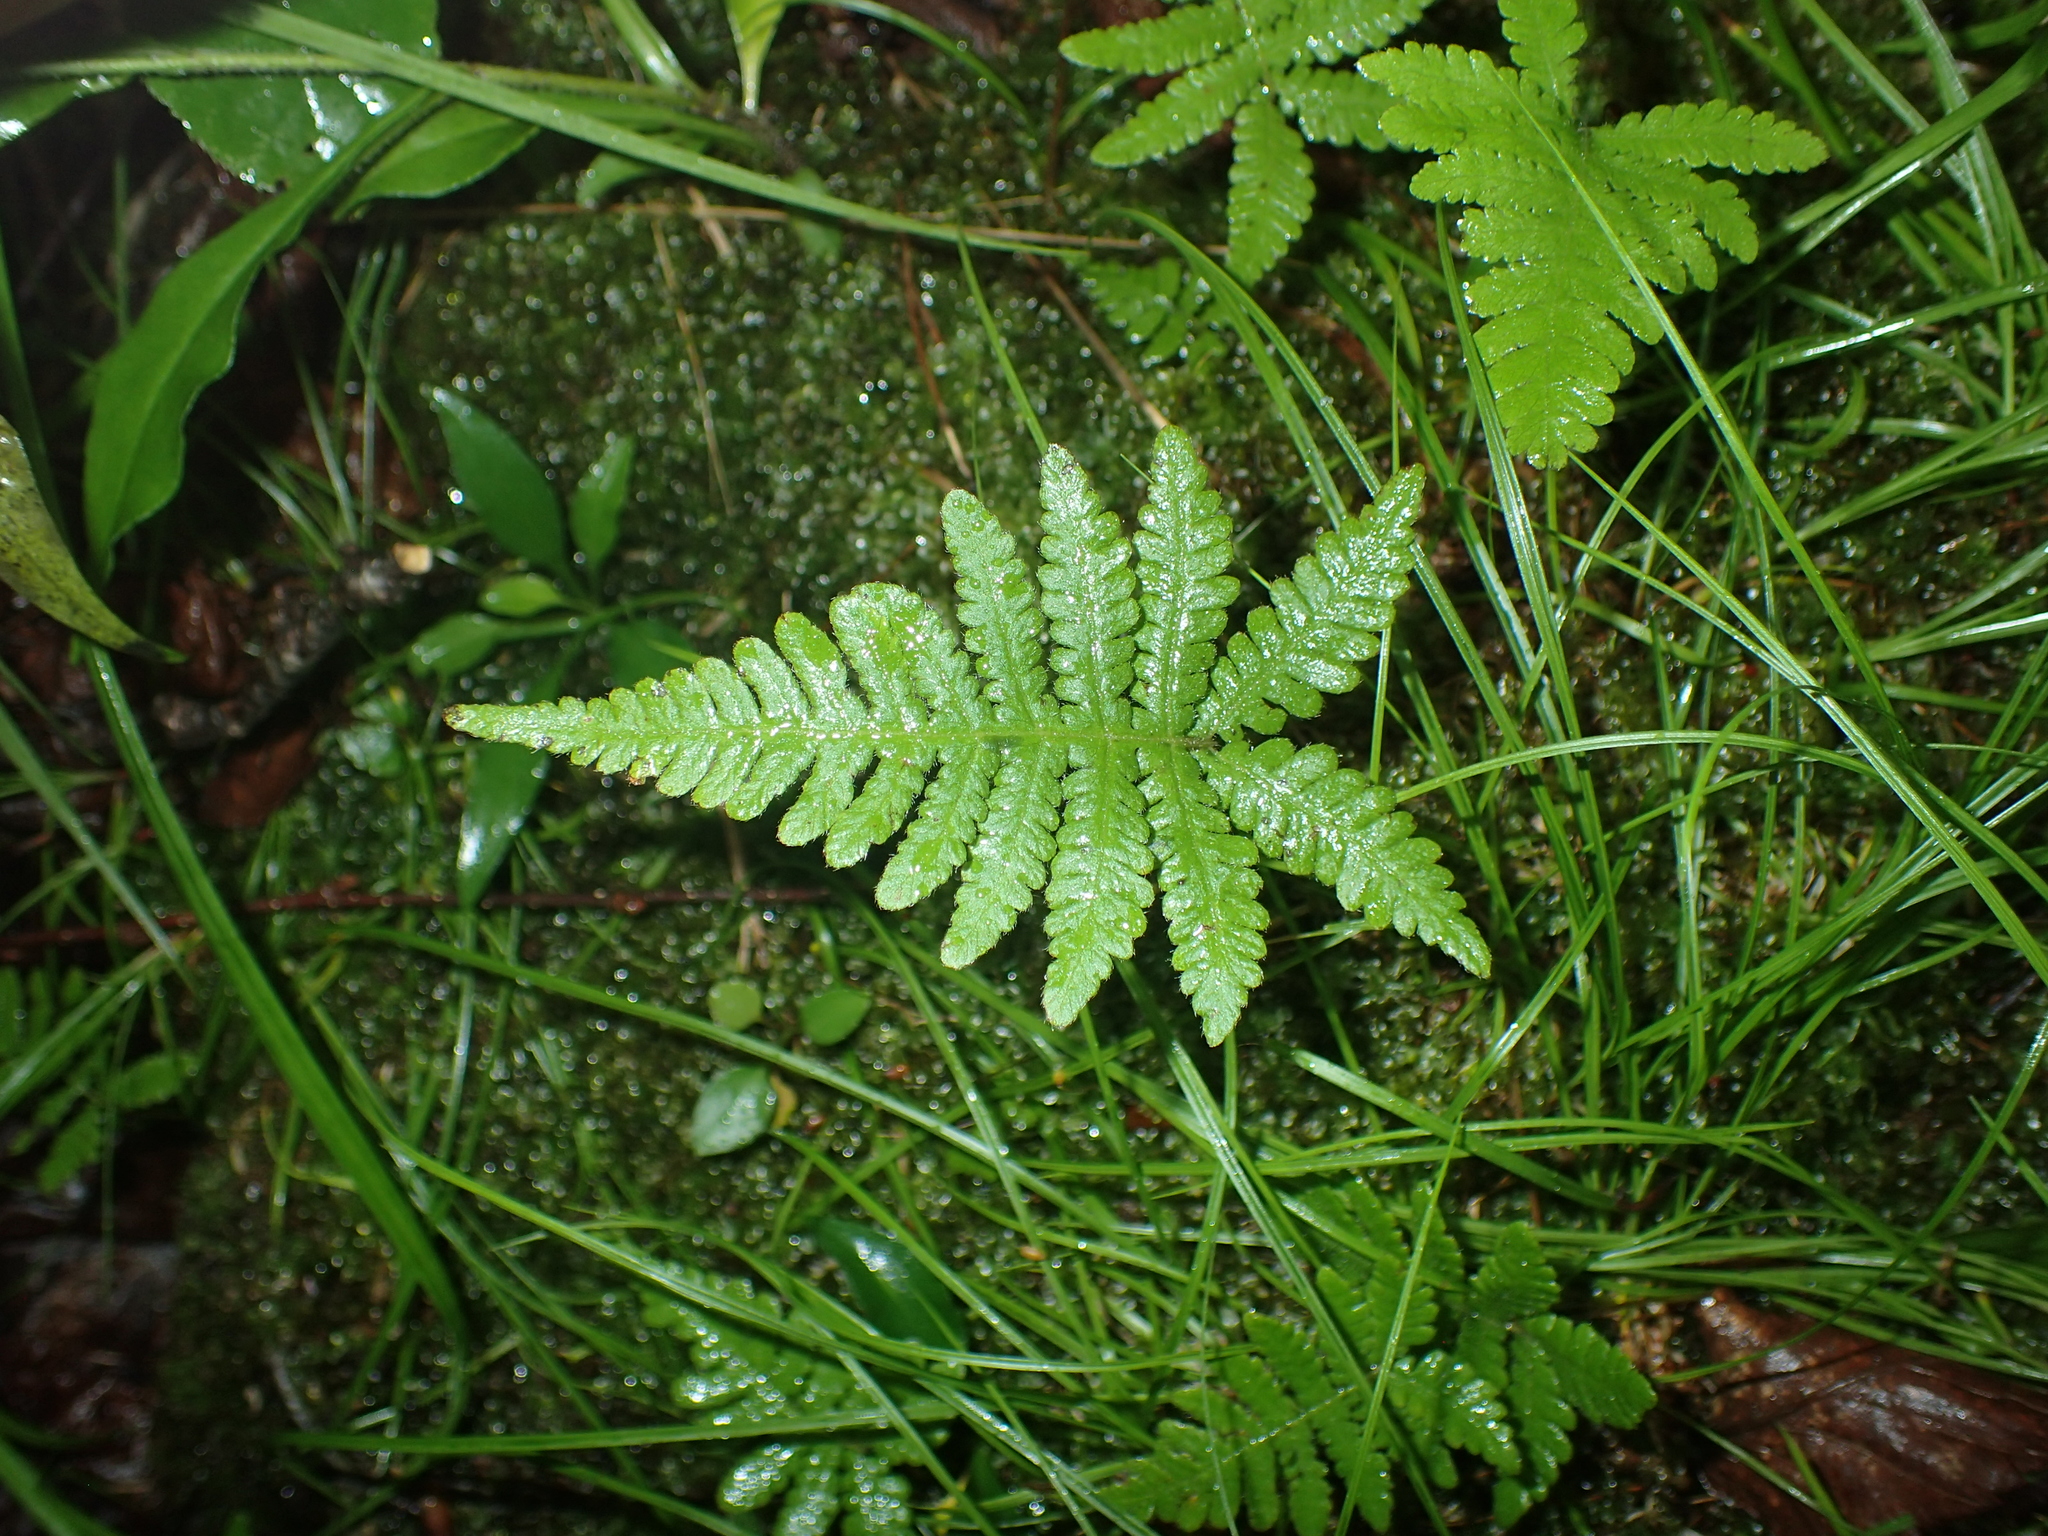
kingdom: Plantae
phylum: Tracheophyta
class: Polypodiopsida
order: Polypodiales
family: Thelypteridaceae
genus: Phegopteris
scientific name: Phegopteris connectilis
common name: Beech fern
